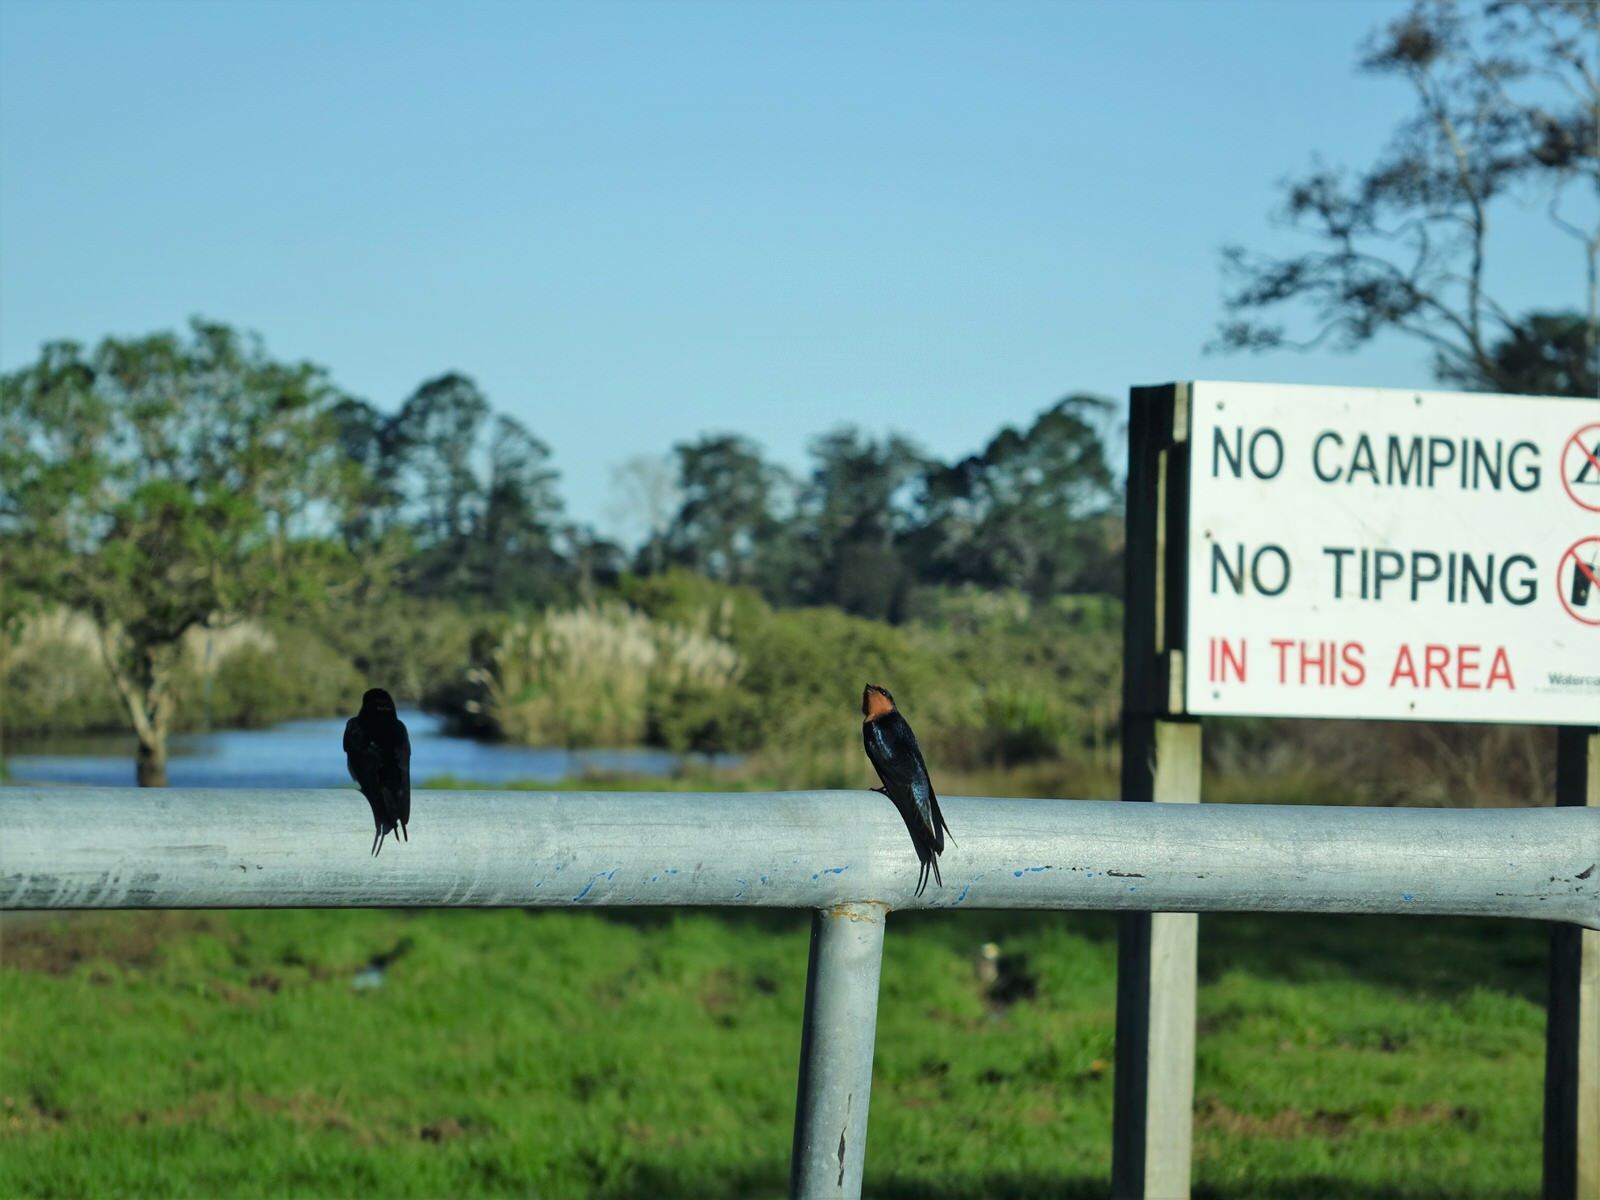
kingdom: Animalia
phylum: Chordata
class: Aves
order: Passeriformes
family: Hirundinidae
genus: Hirundo
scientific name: Hirundo neoxena
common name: Welcome swallow
